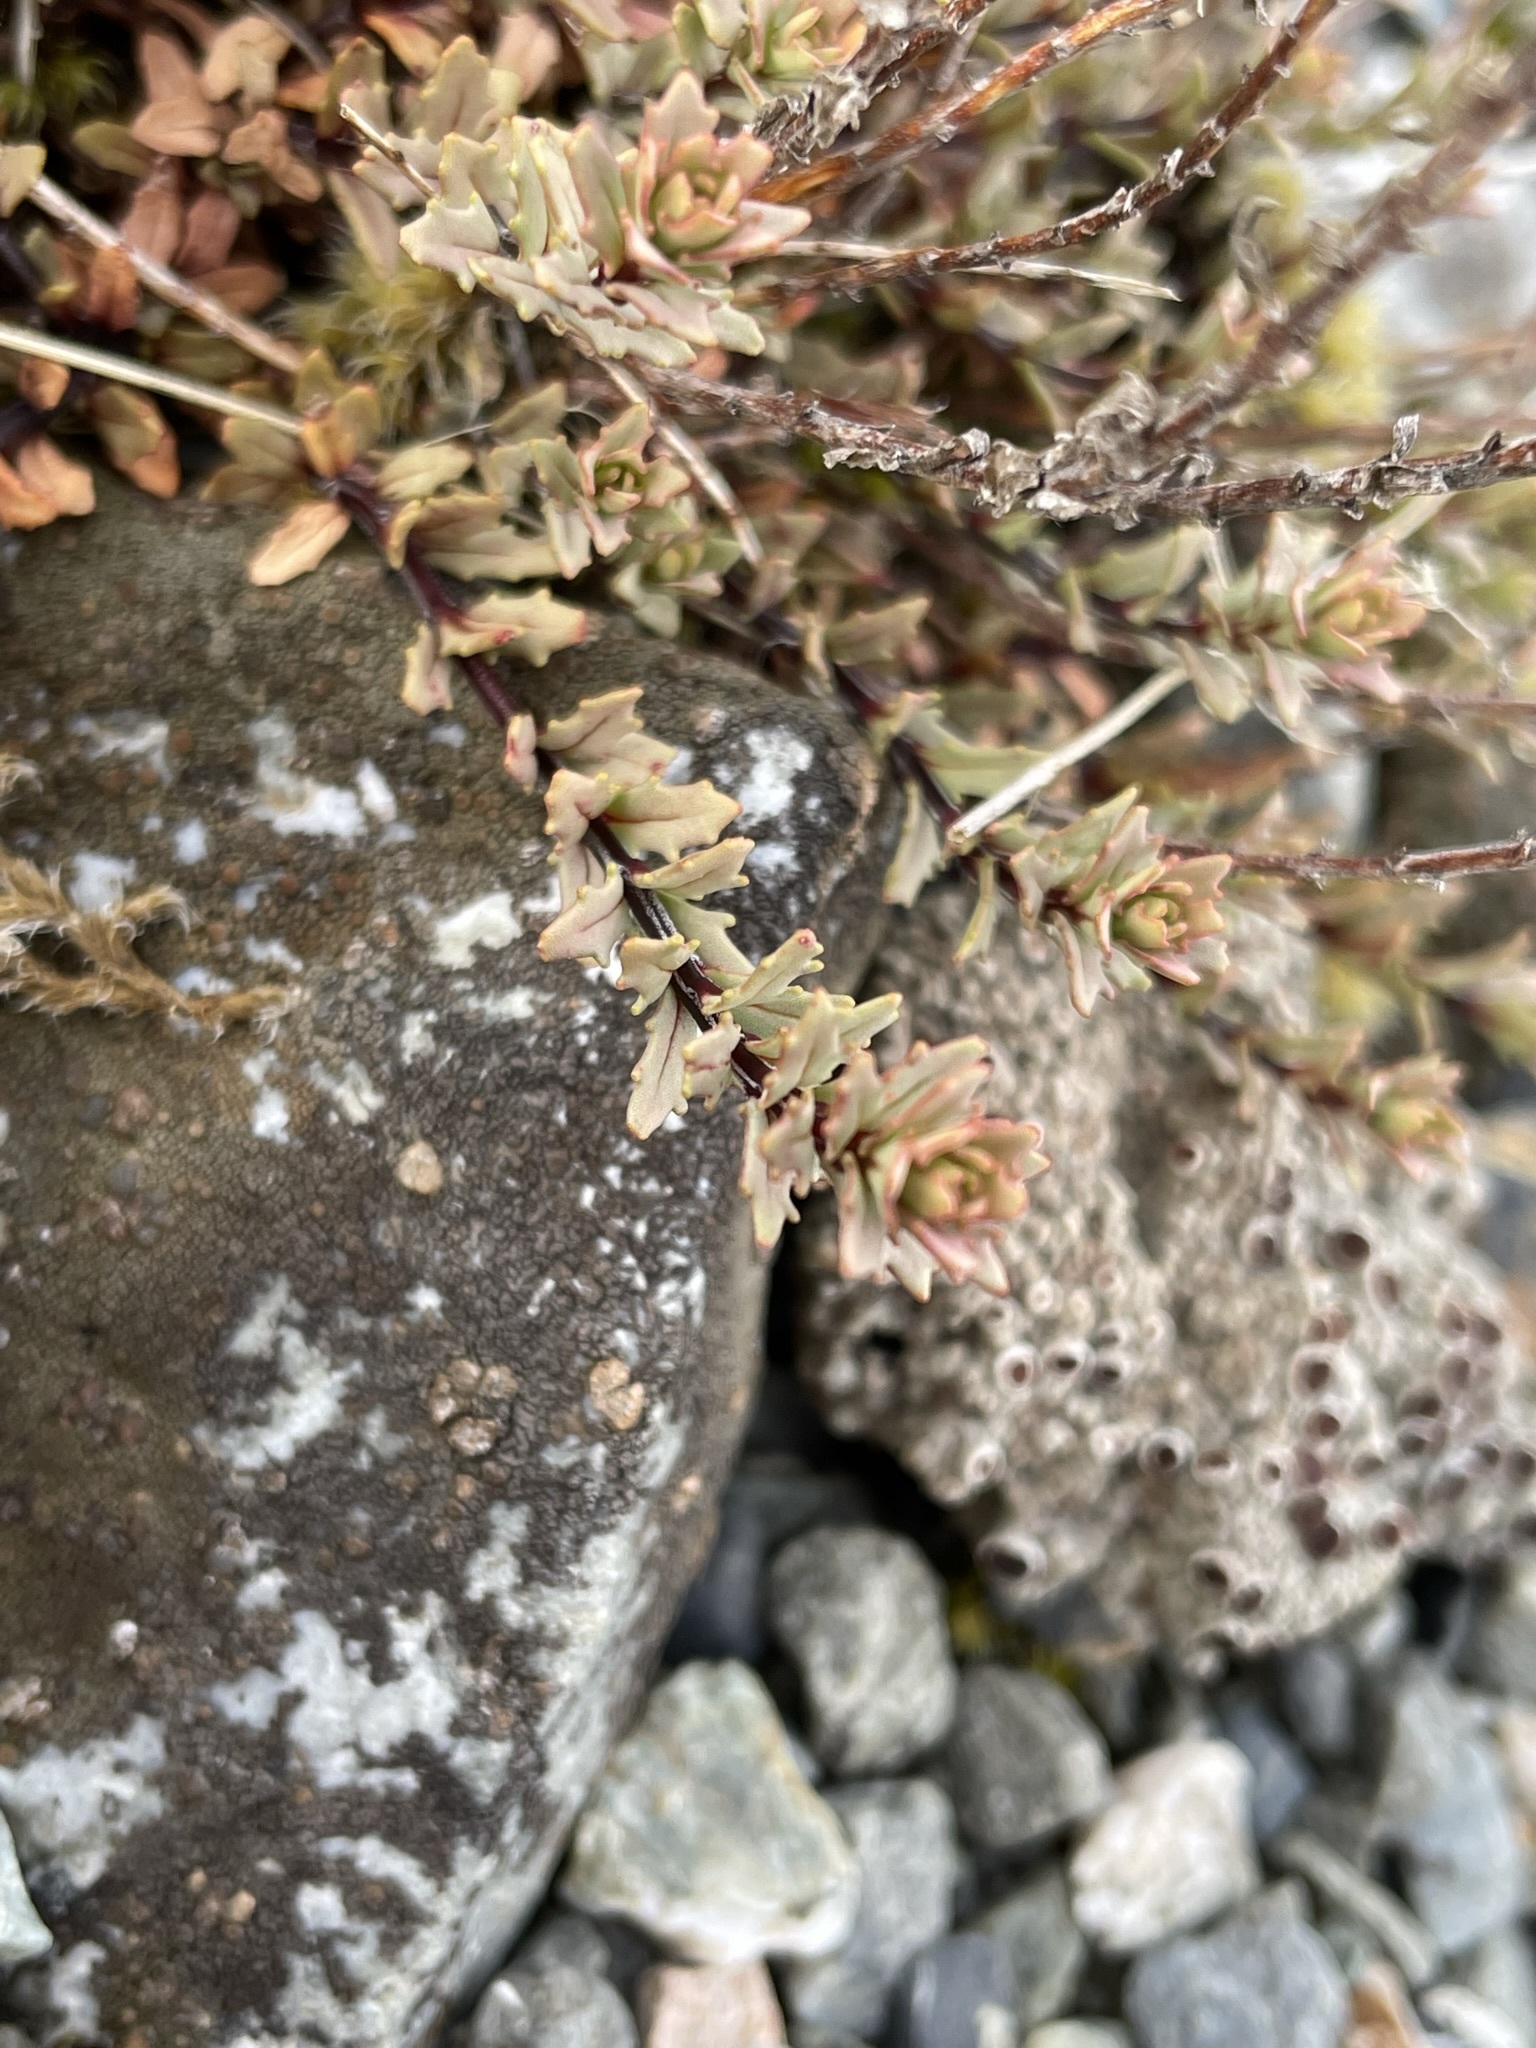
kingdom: Plantae
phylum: Tracheophyta
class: Magnoliopsida
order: Myrtales
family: Onagraceae
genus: Epilobium
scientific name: Epilobium melanocaulon
